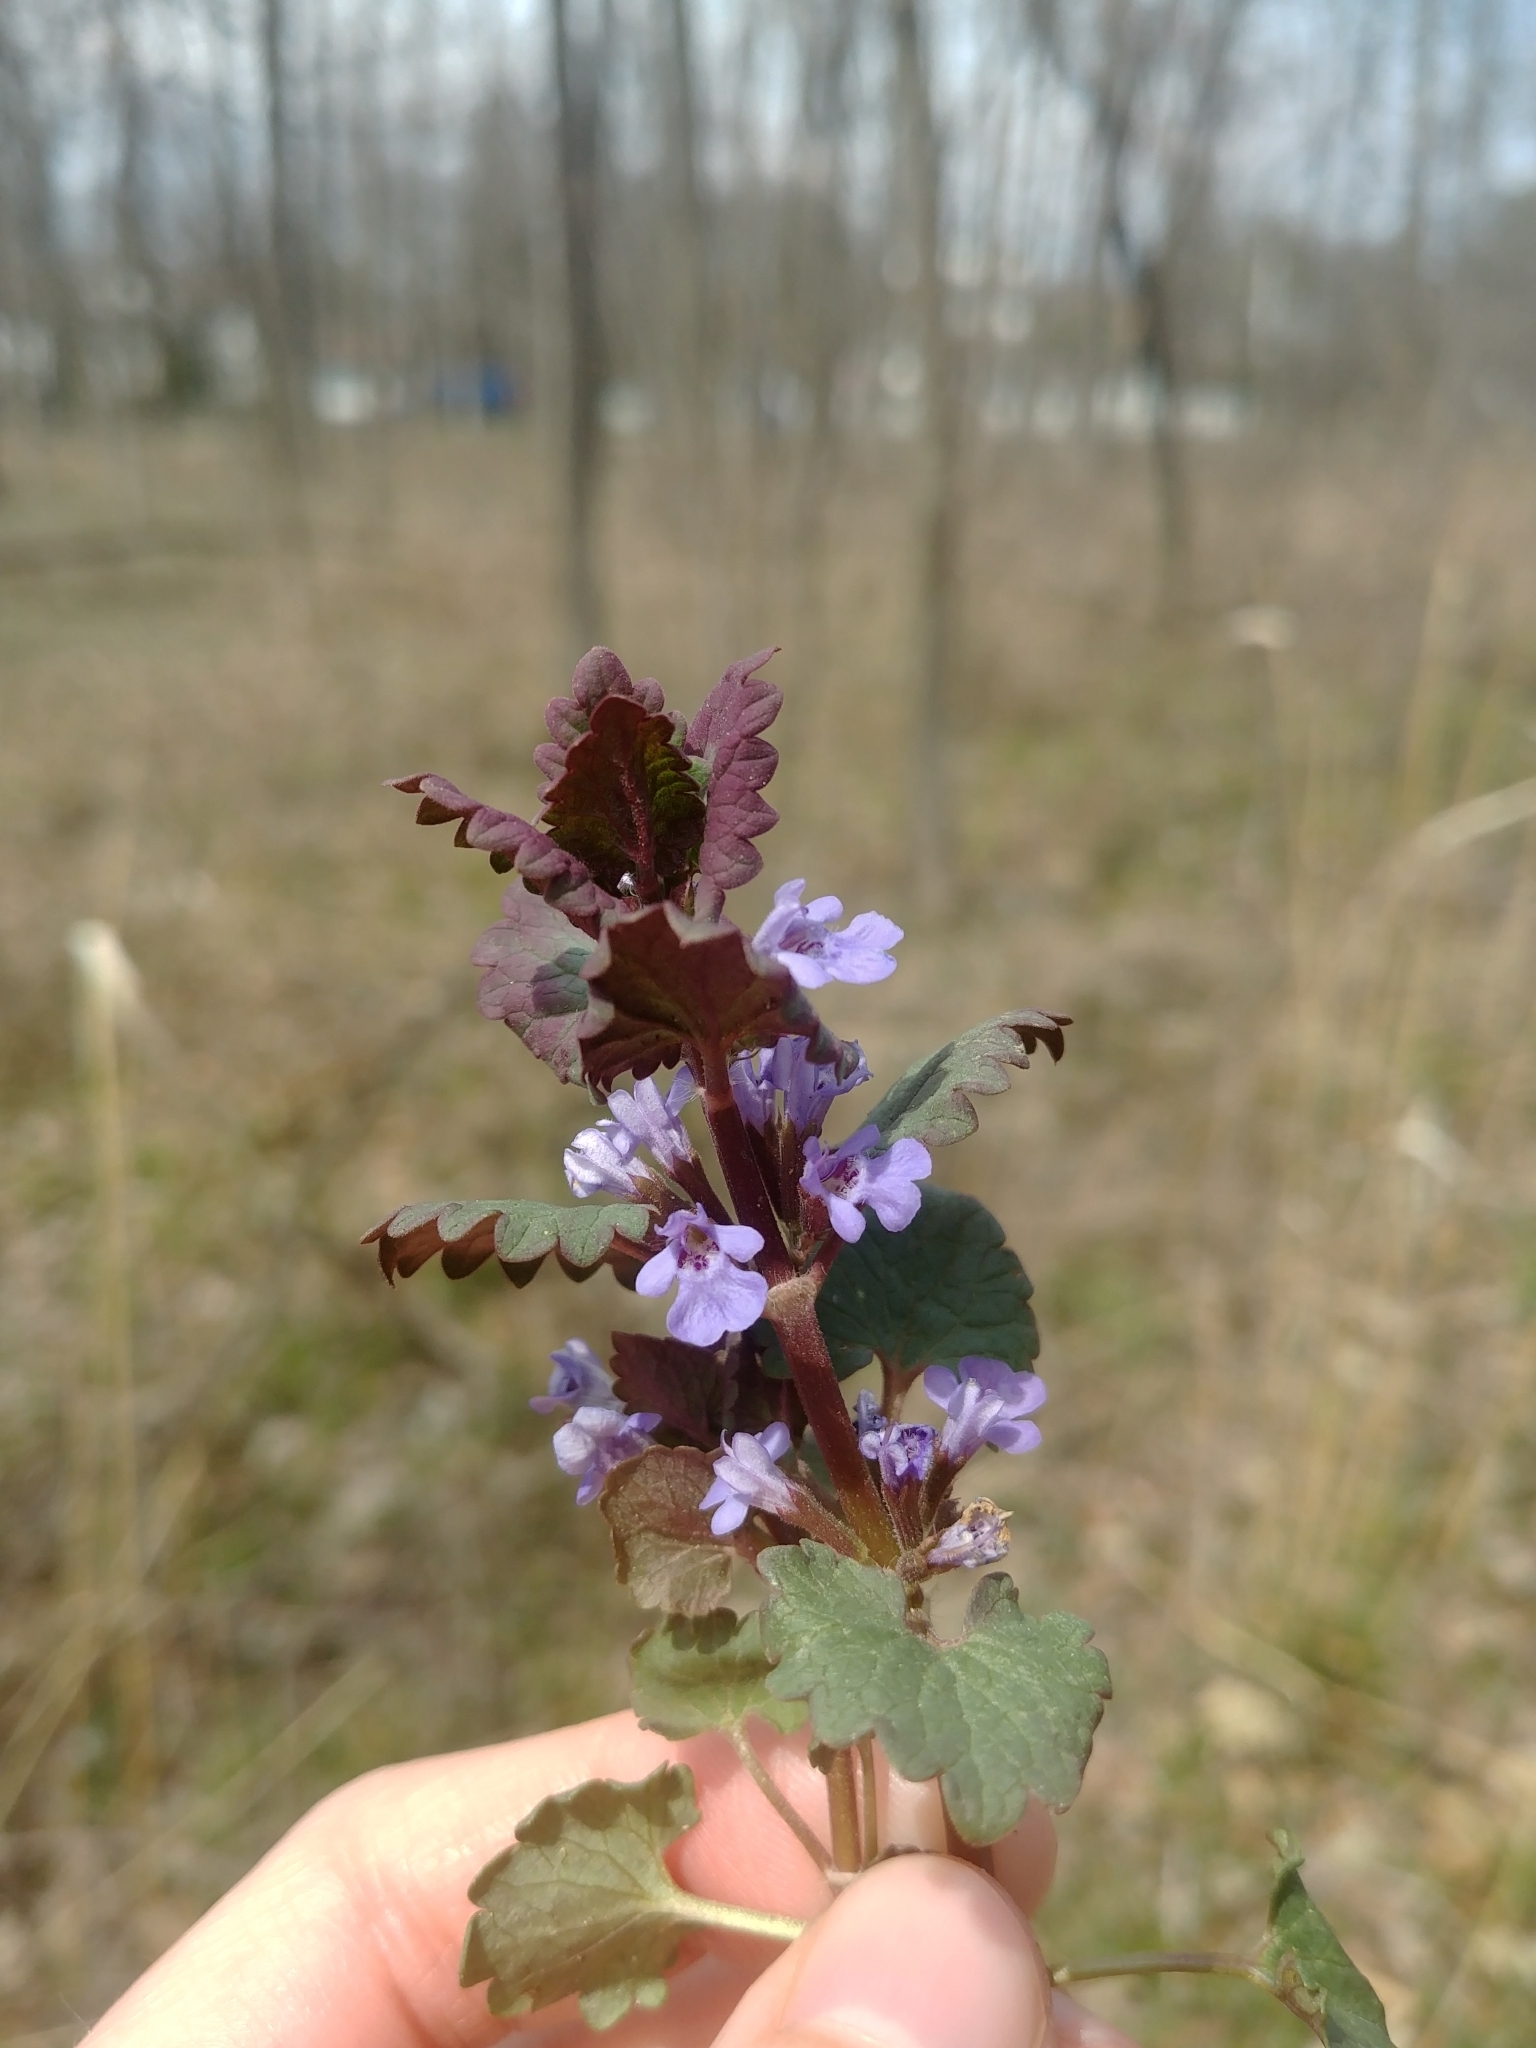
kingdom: Plantae
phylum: Tracheophyta
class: Magnoliopsida
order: Lamiales
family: Lamiaceae
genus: Glechoma
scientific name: Glechoma hederacea
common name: Ground ivy
